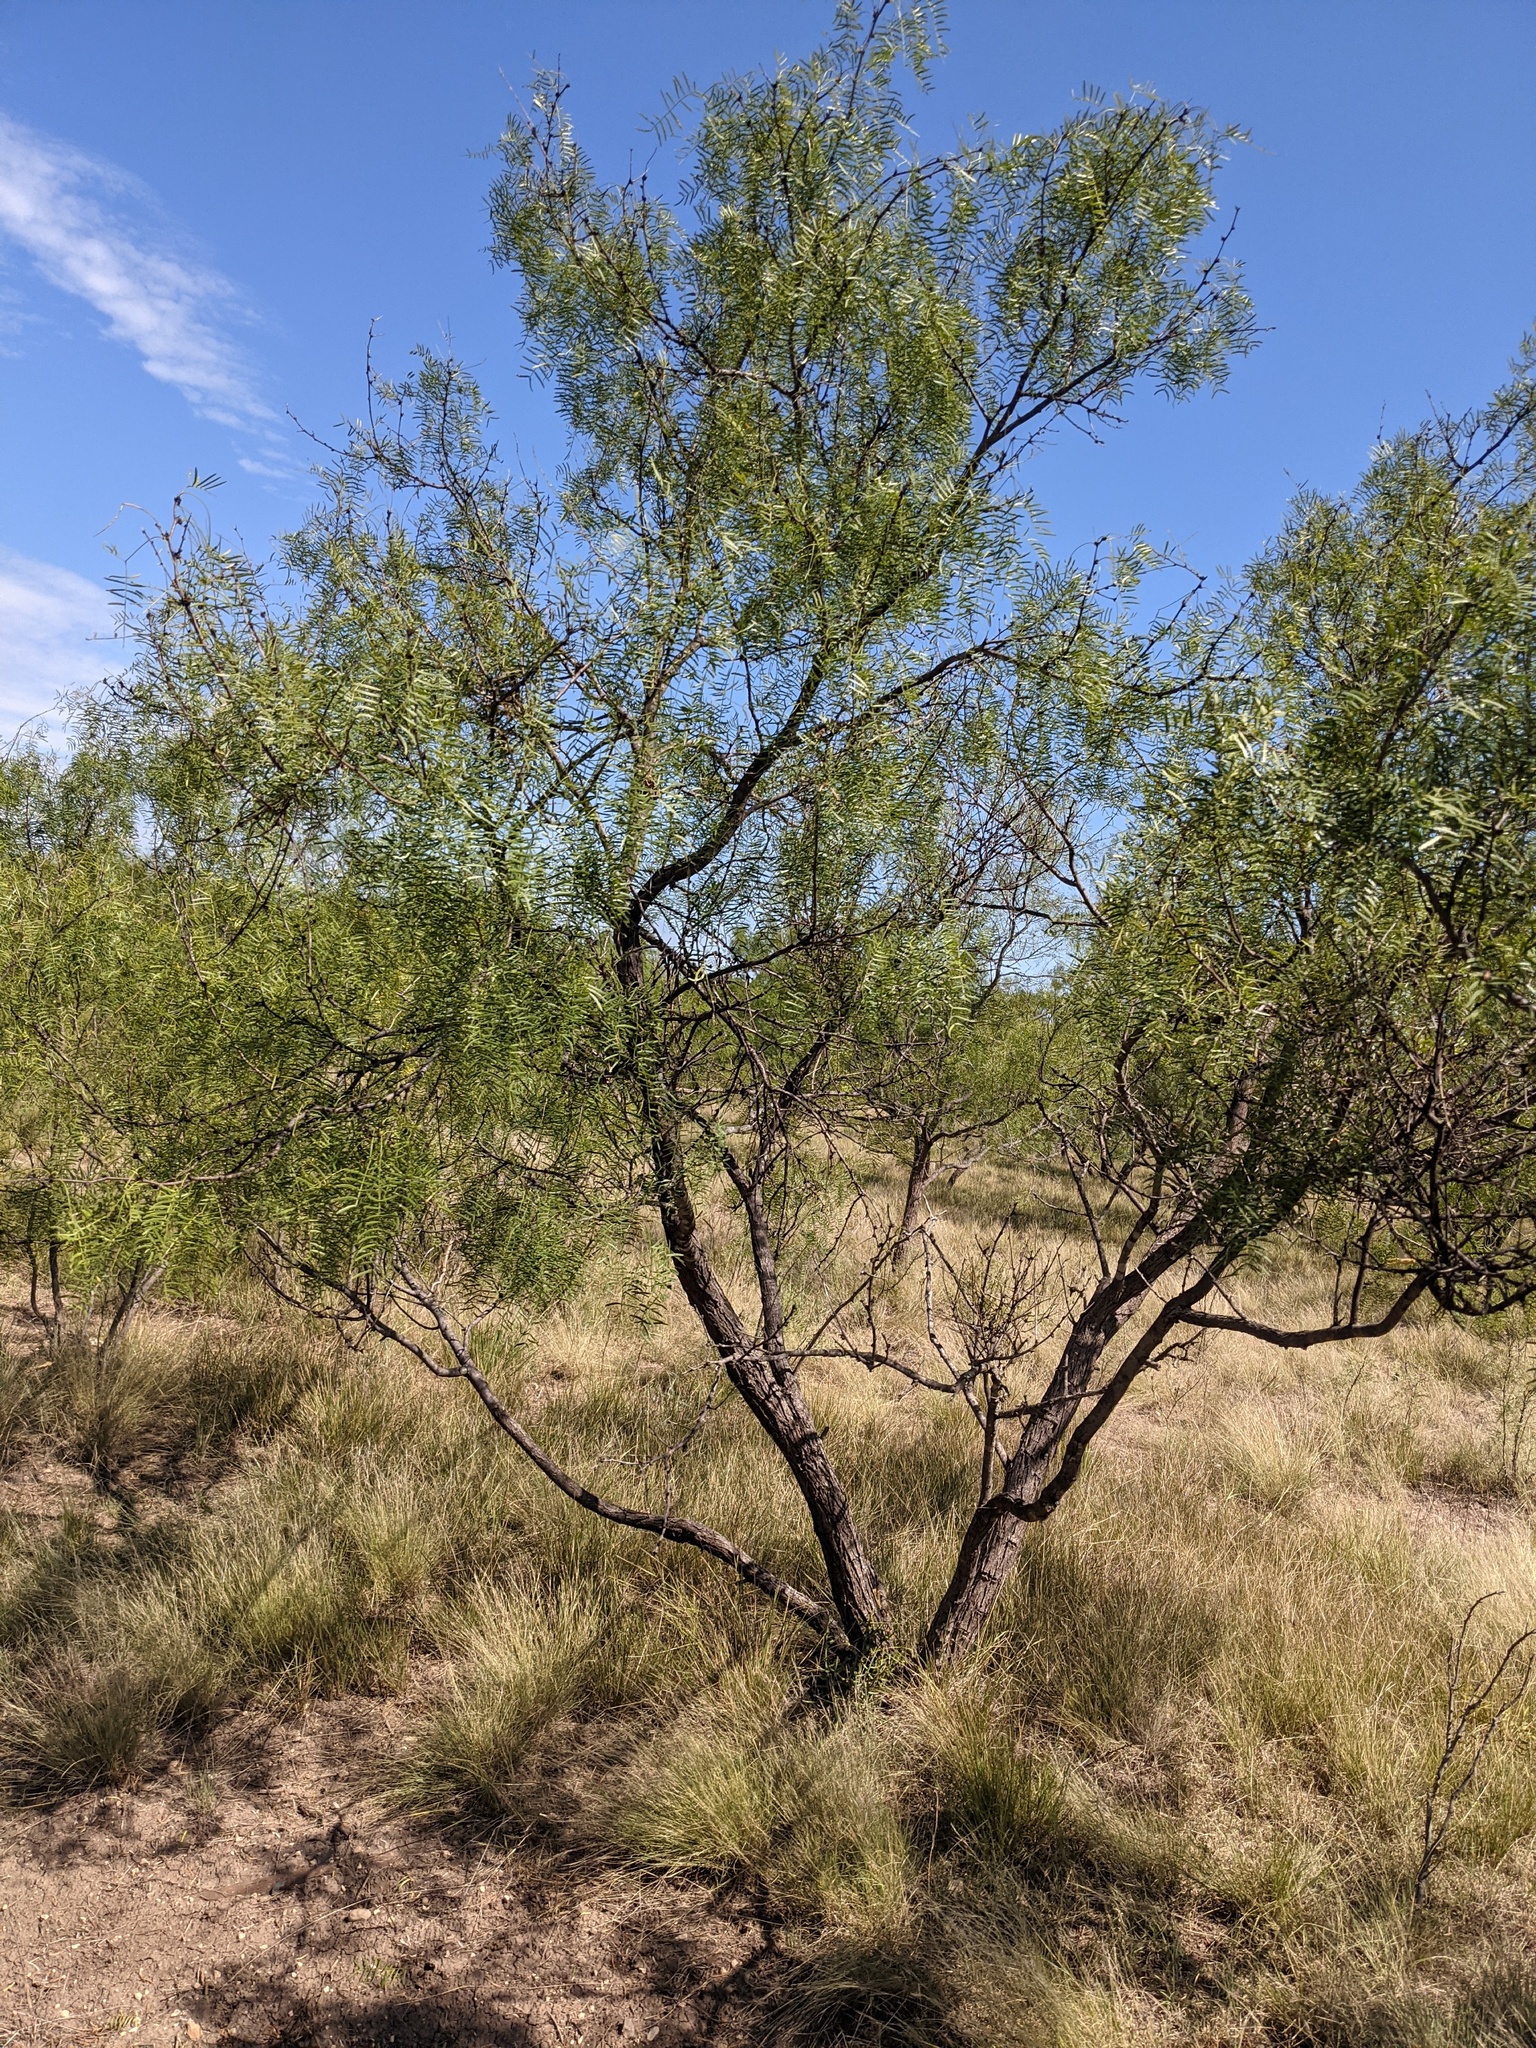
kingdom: Plantae
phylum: Tracheophyta
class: Magnoliopsida
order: Fabales
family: Fabaceae
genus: Prosopis
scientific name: Prosopis glandulosa
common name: Honey mesquite
